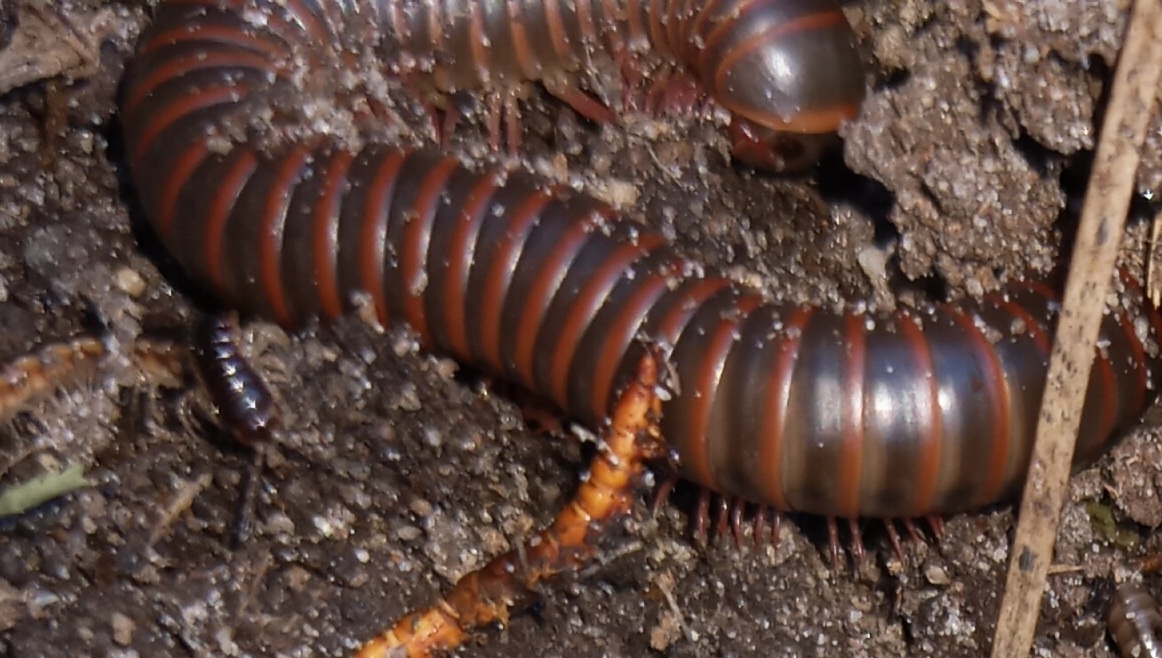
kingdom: Animalia
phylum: Arthropoda
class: Diplopoda
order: Spirobolida
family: Spirobolidae
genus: Narceus
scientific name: Narceus americanus
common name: American giant millipede
